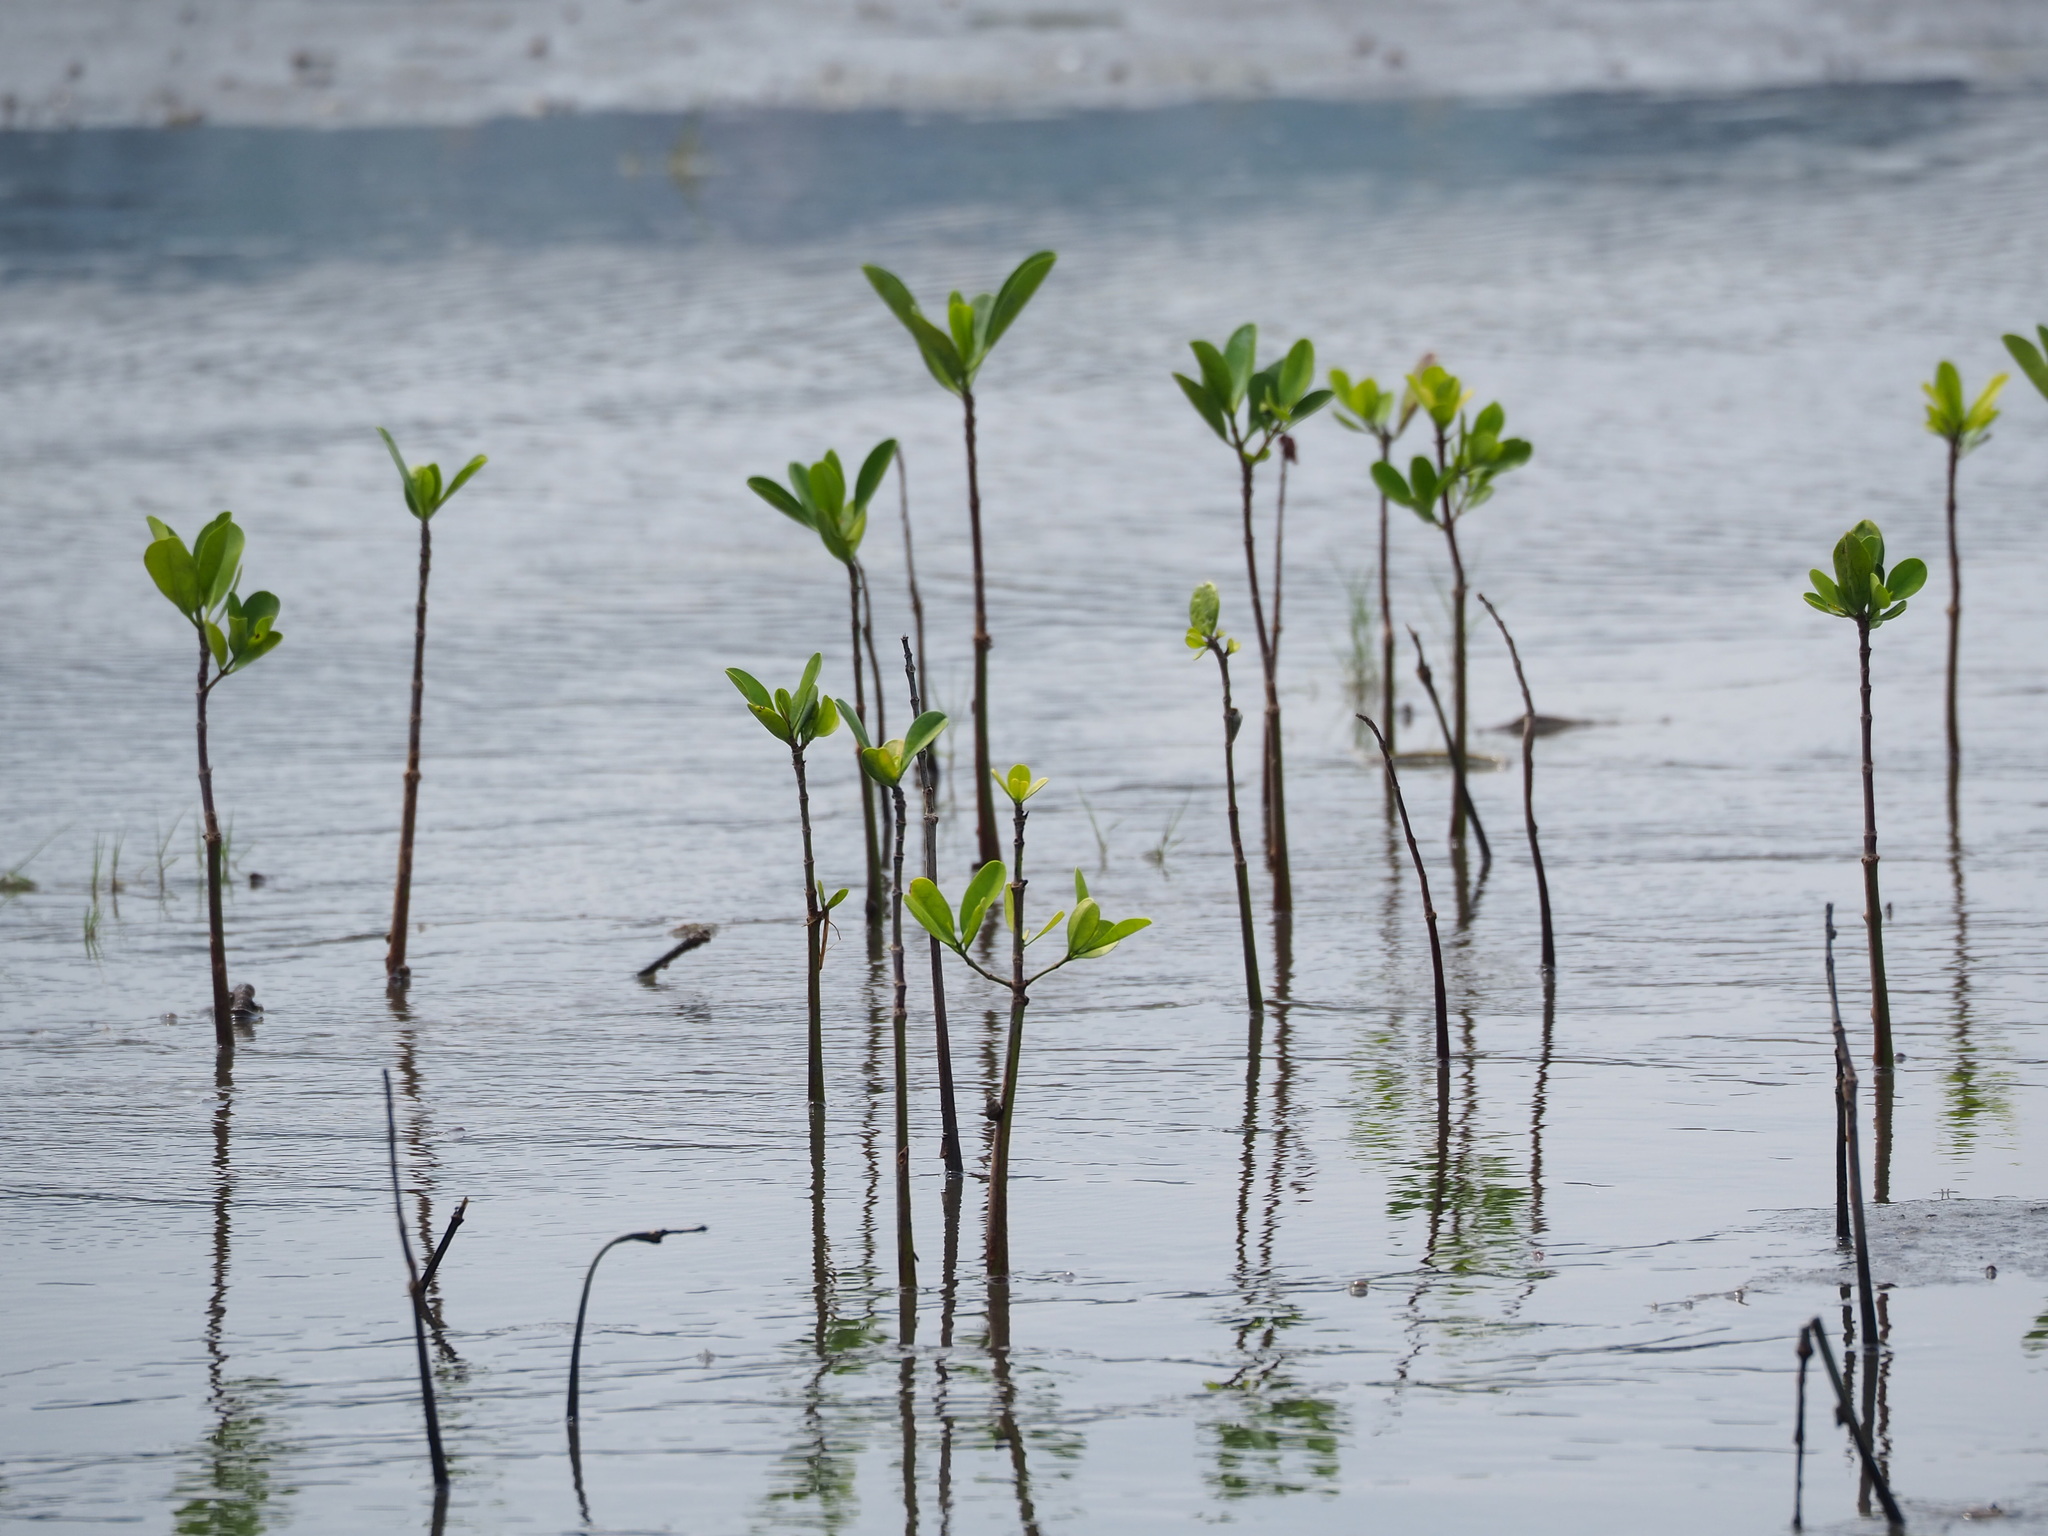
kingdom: Plantae
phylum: Tracheophyta
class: Magnoliopsida
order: Malpighiales
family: Rhizophoraceae
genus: Kandelia
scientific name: Kandelia obovata
